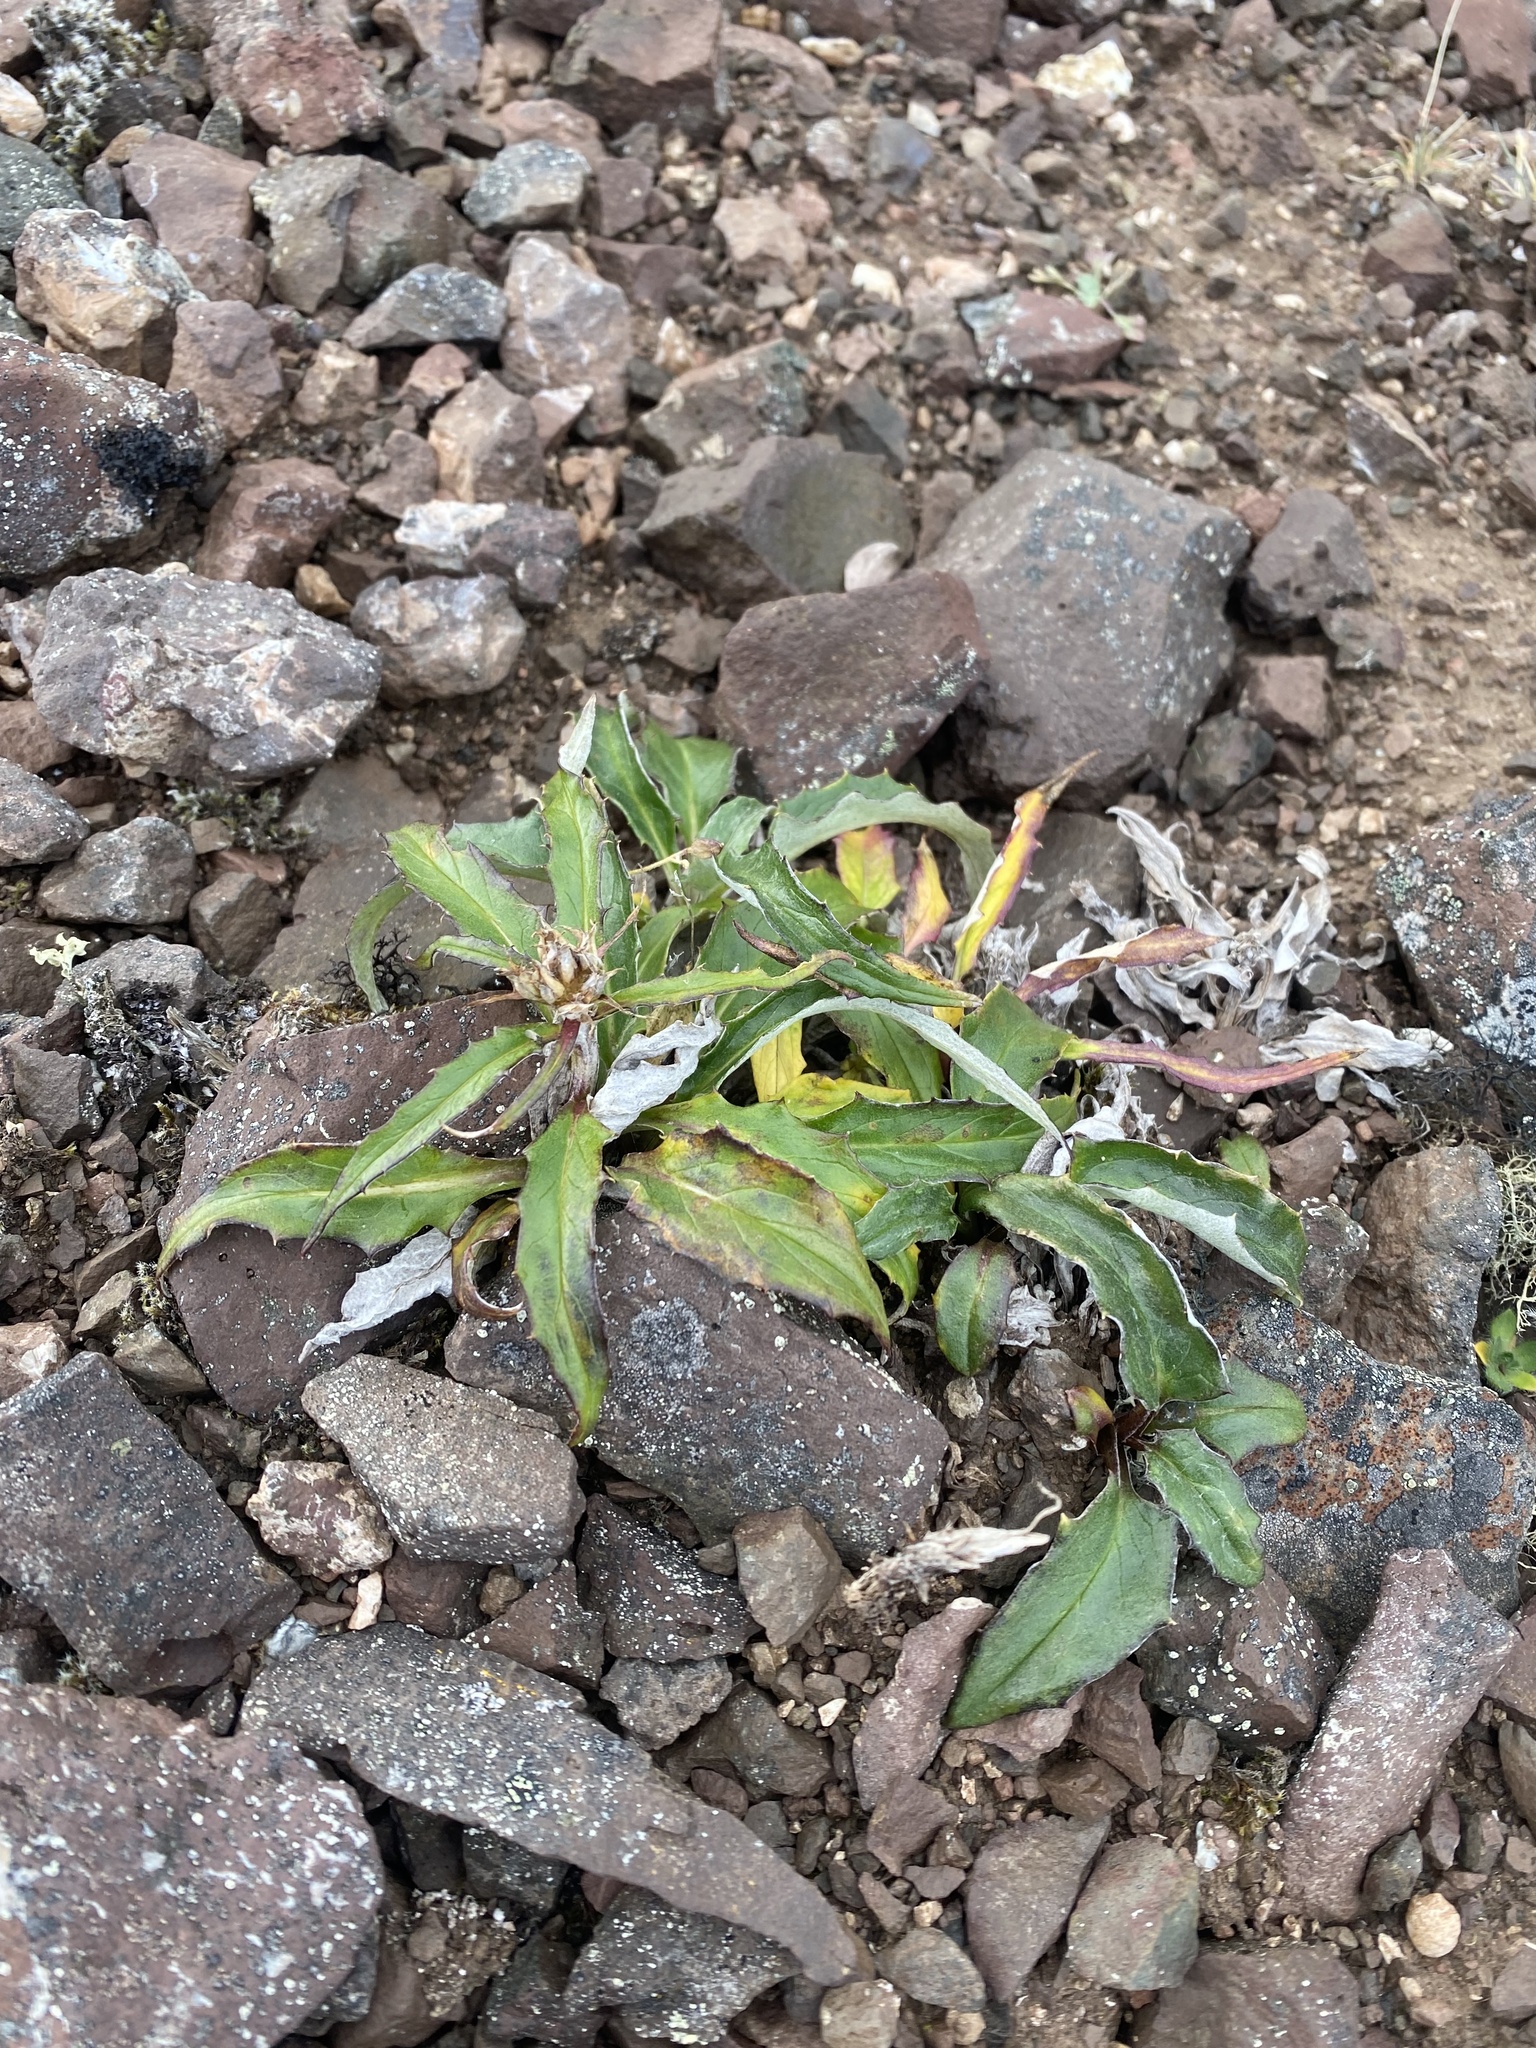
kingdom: Plantae
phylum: Tracheophyta
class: Magnoliopsida
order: Asterales
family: Asteraceae
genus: Saussurea
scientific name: Saussurea tilesii
